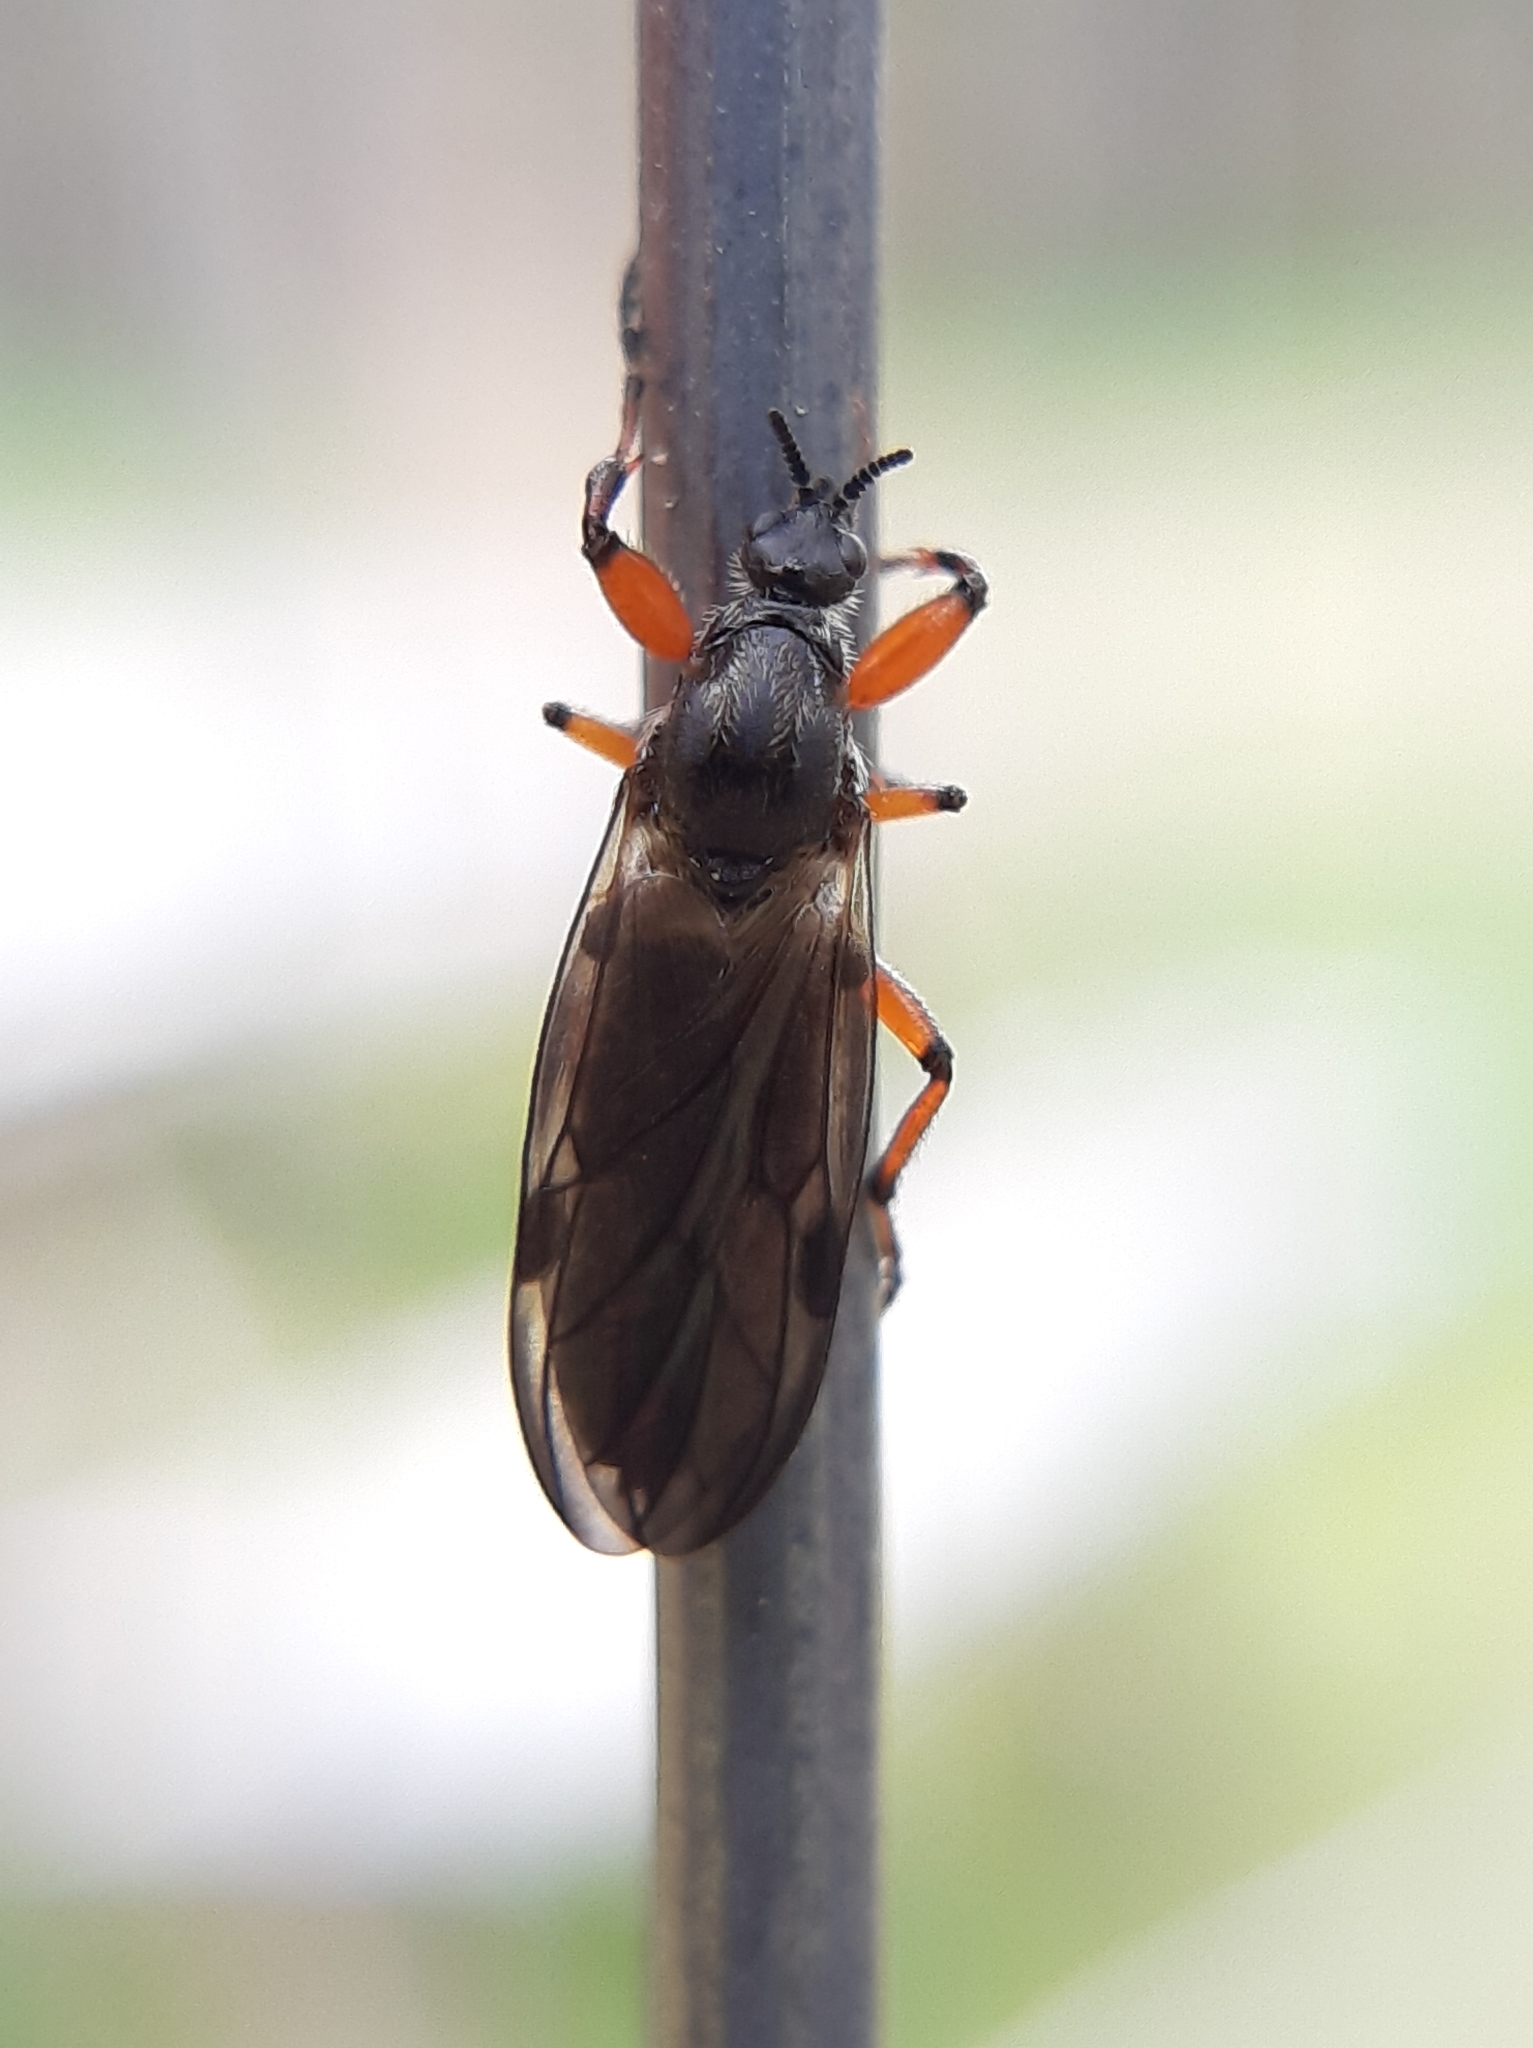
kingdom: Animalia
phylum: Arthropoda
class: Insecta
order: Diptera
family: Bibionidae
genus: Bibio
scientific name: Bibio xanthopus
